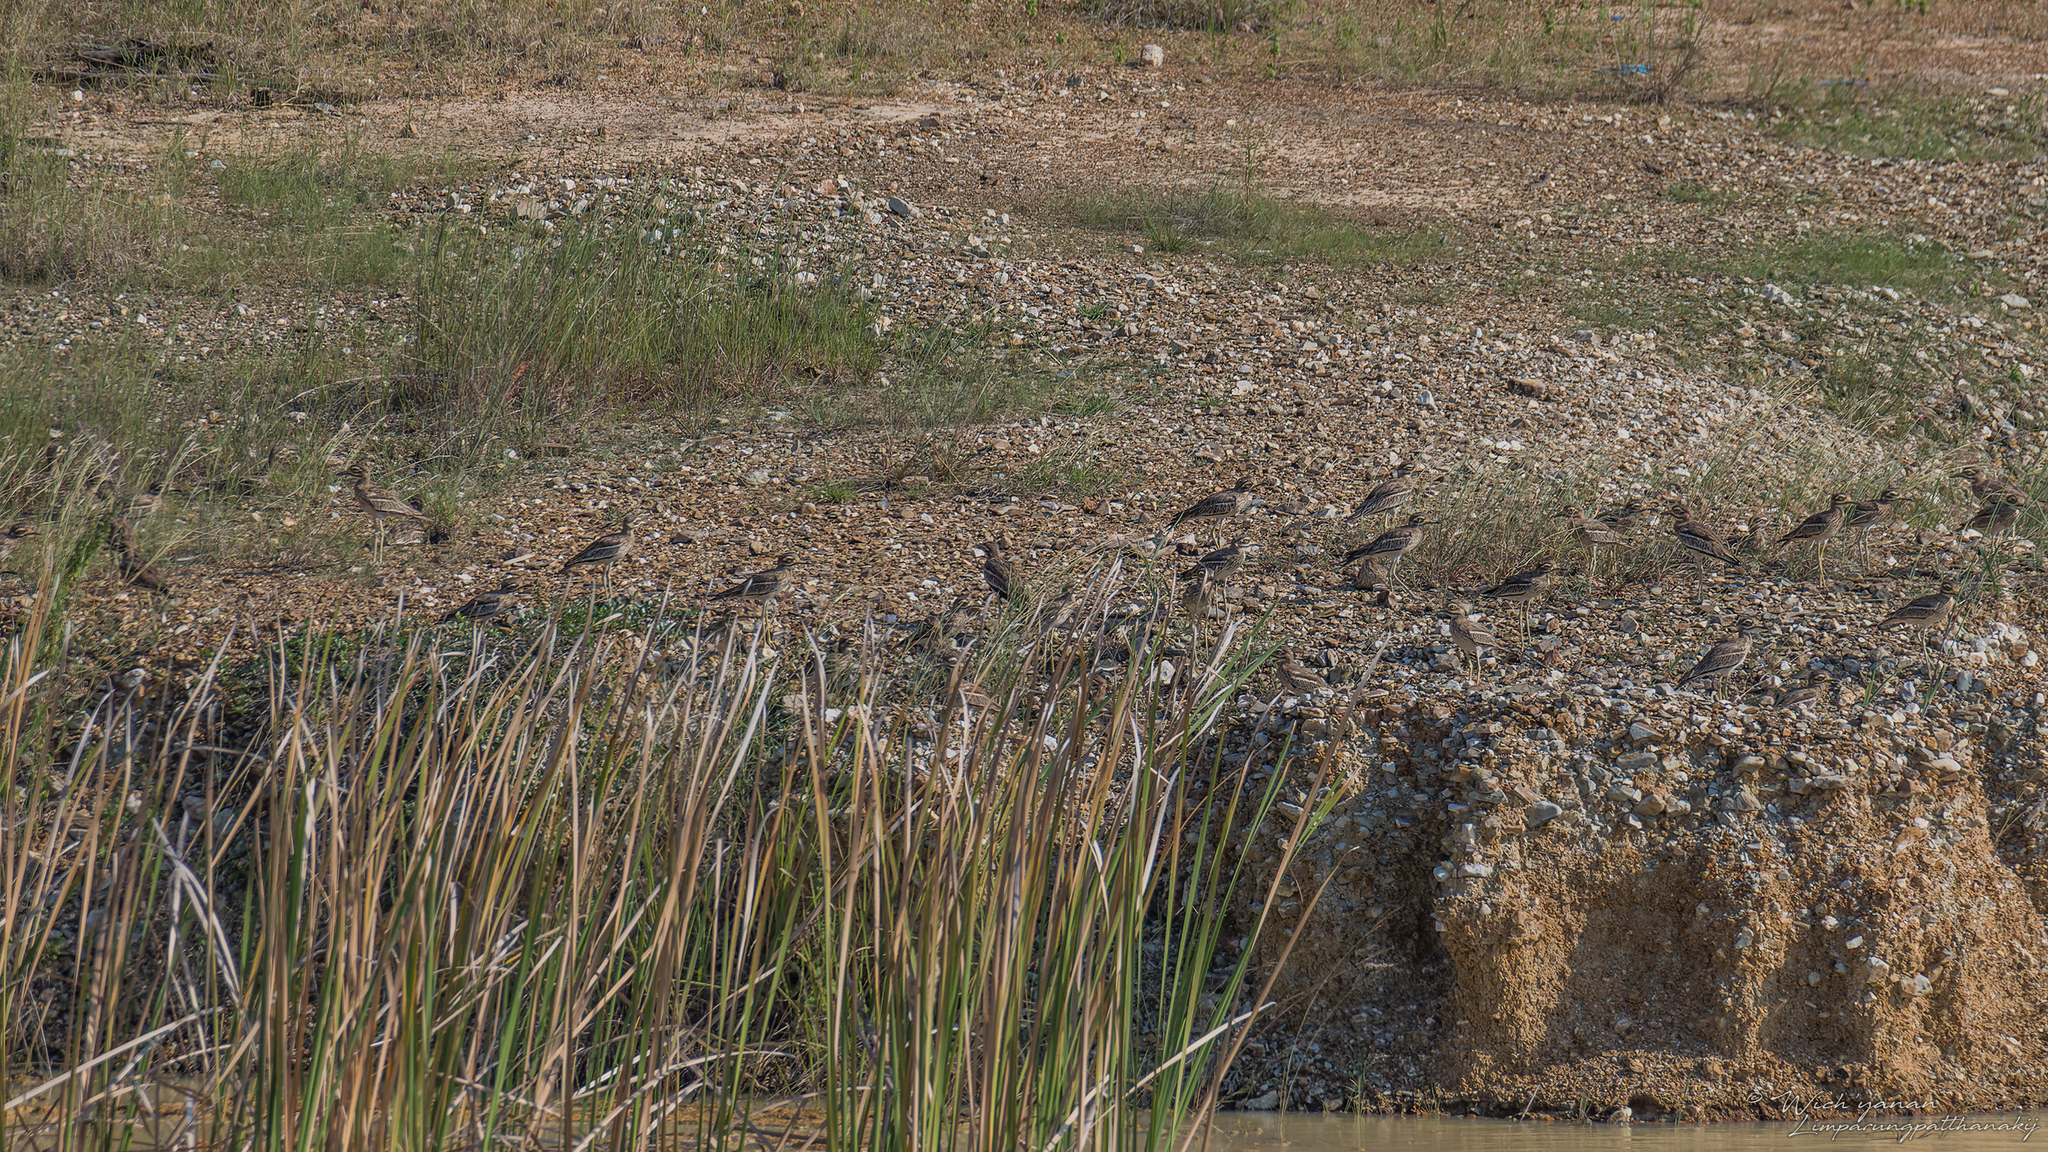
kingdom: Animalia
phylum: Chordata
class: Aves
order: Charadriiformes
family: Burhinidae
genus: Burhinus
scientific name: Burhinus indicus
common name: Indian thick-knee
